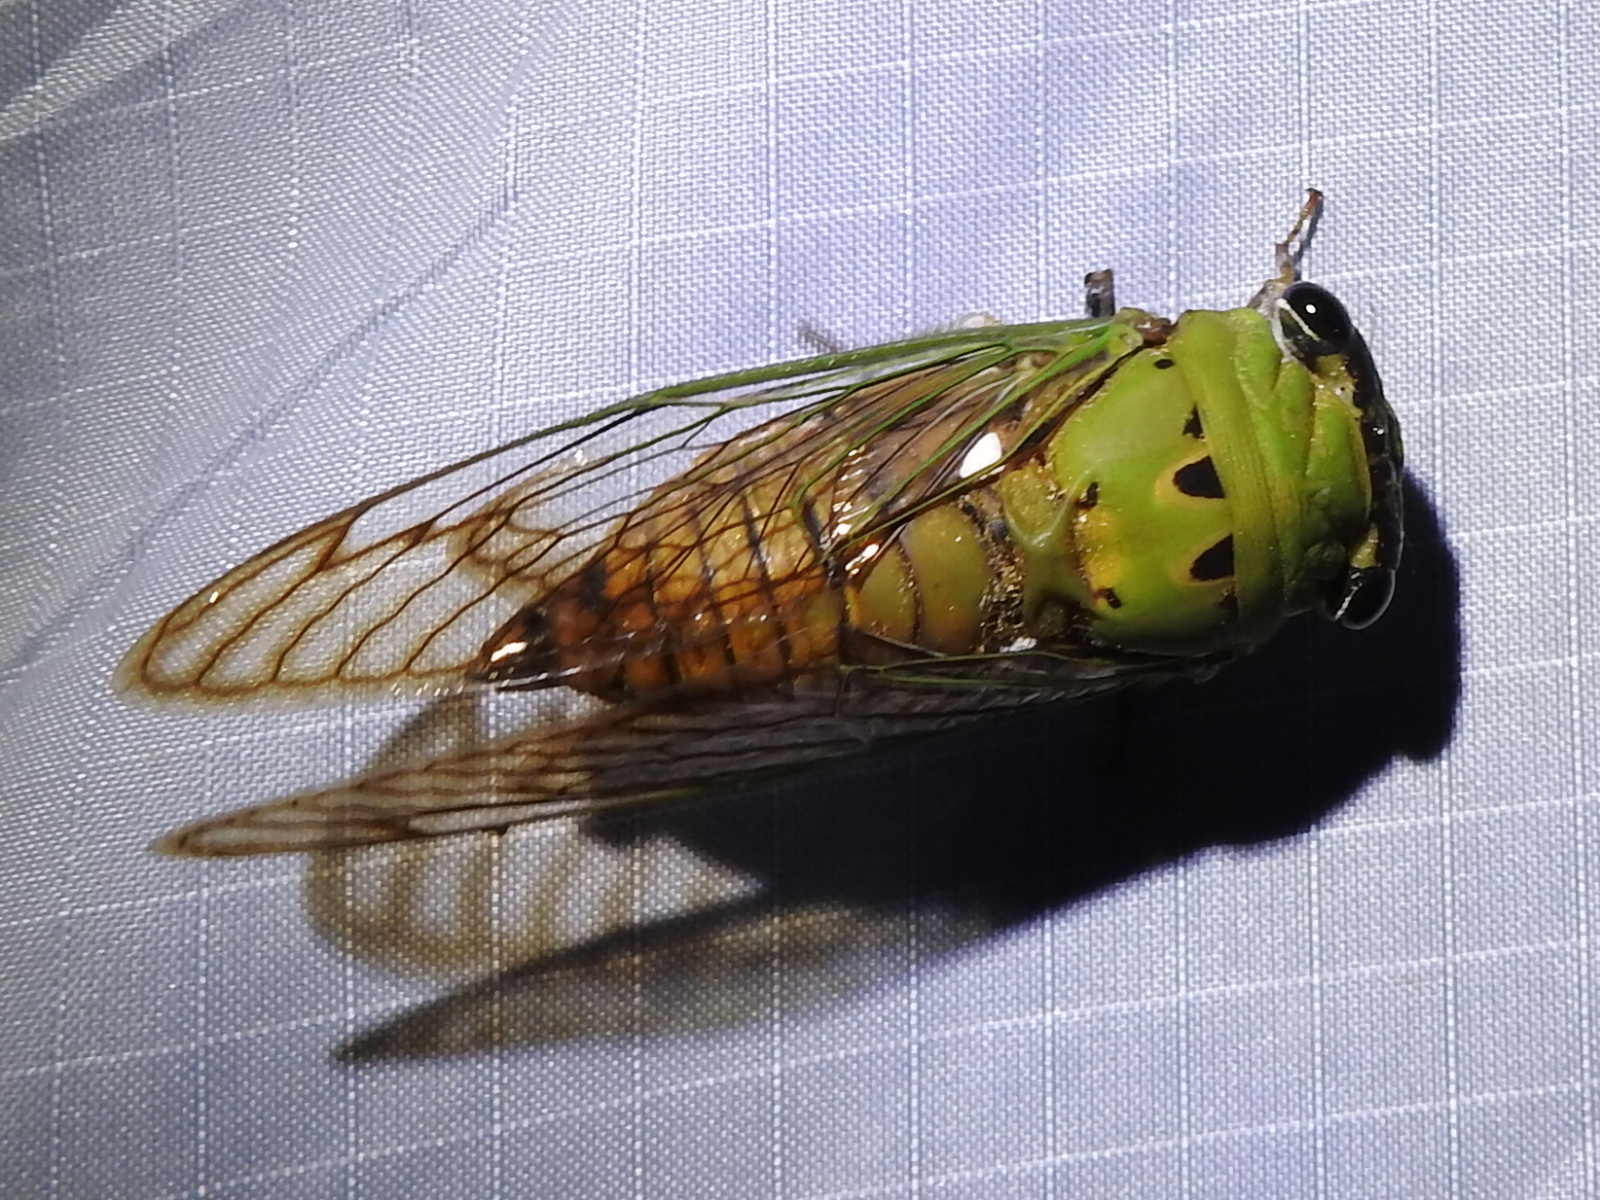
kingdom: Animalia
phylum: Arthropoda
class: Insecta
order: Hemiptera
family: Cicadidae
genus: Neotibicen
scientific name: Neotibicen superbus
